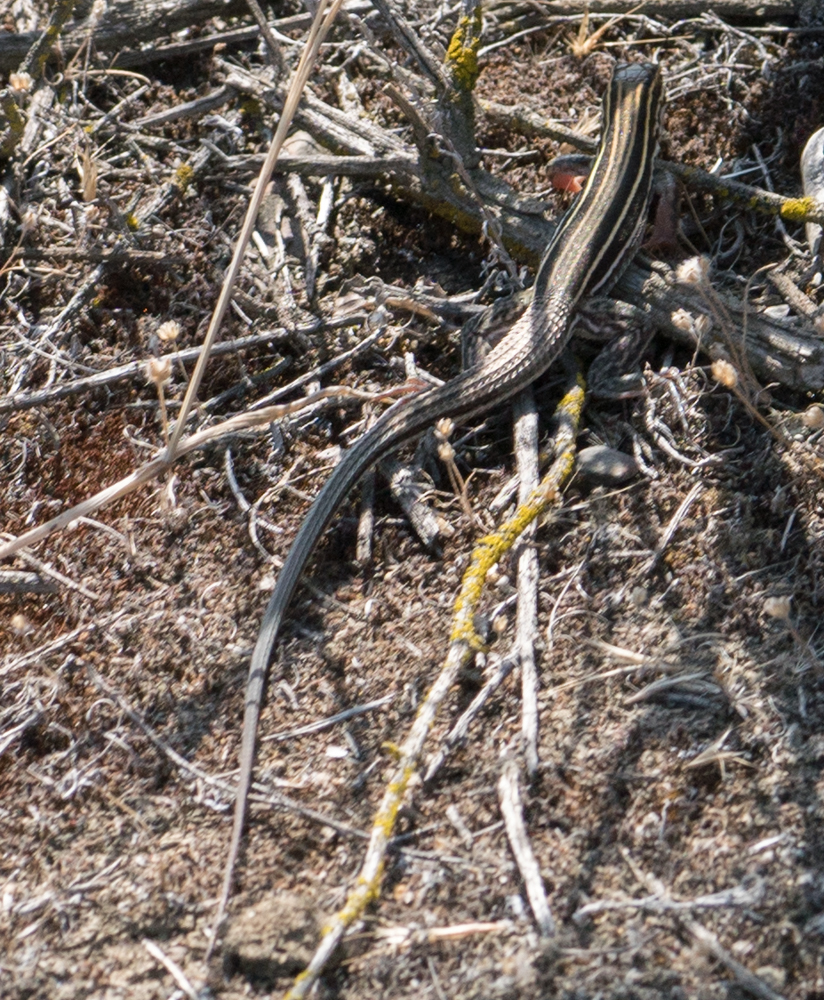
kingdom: Animalia
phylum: Chordata
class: Squamata
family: Teiidae
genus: Aspidoscelis
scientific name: Aspidoscelis hyperythrus
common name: Orange-throated race-runner
